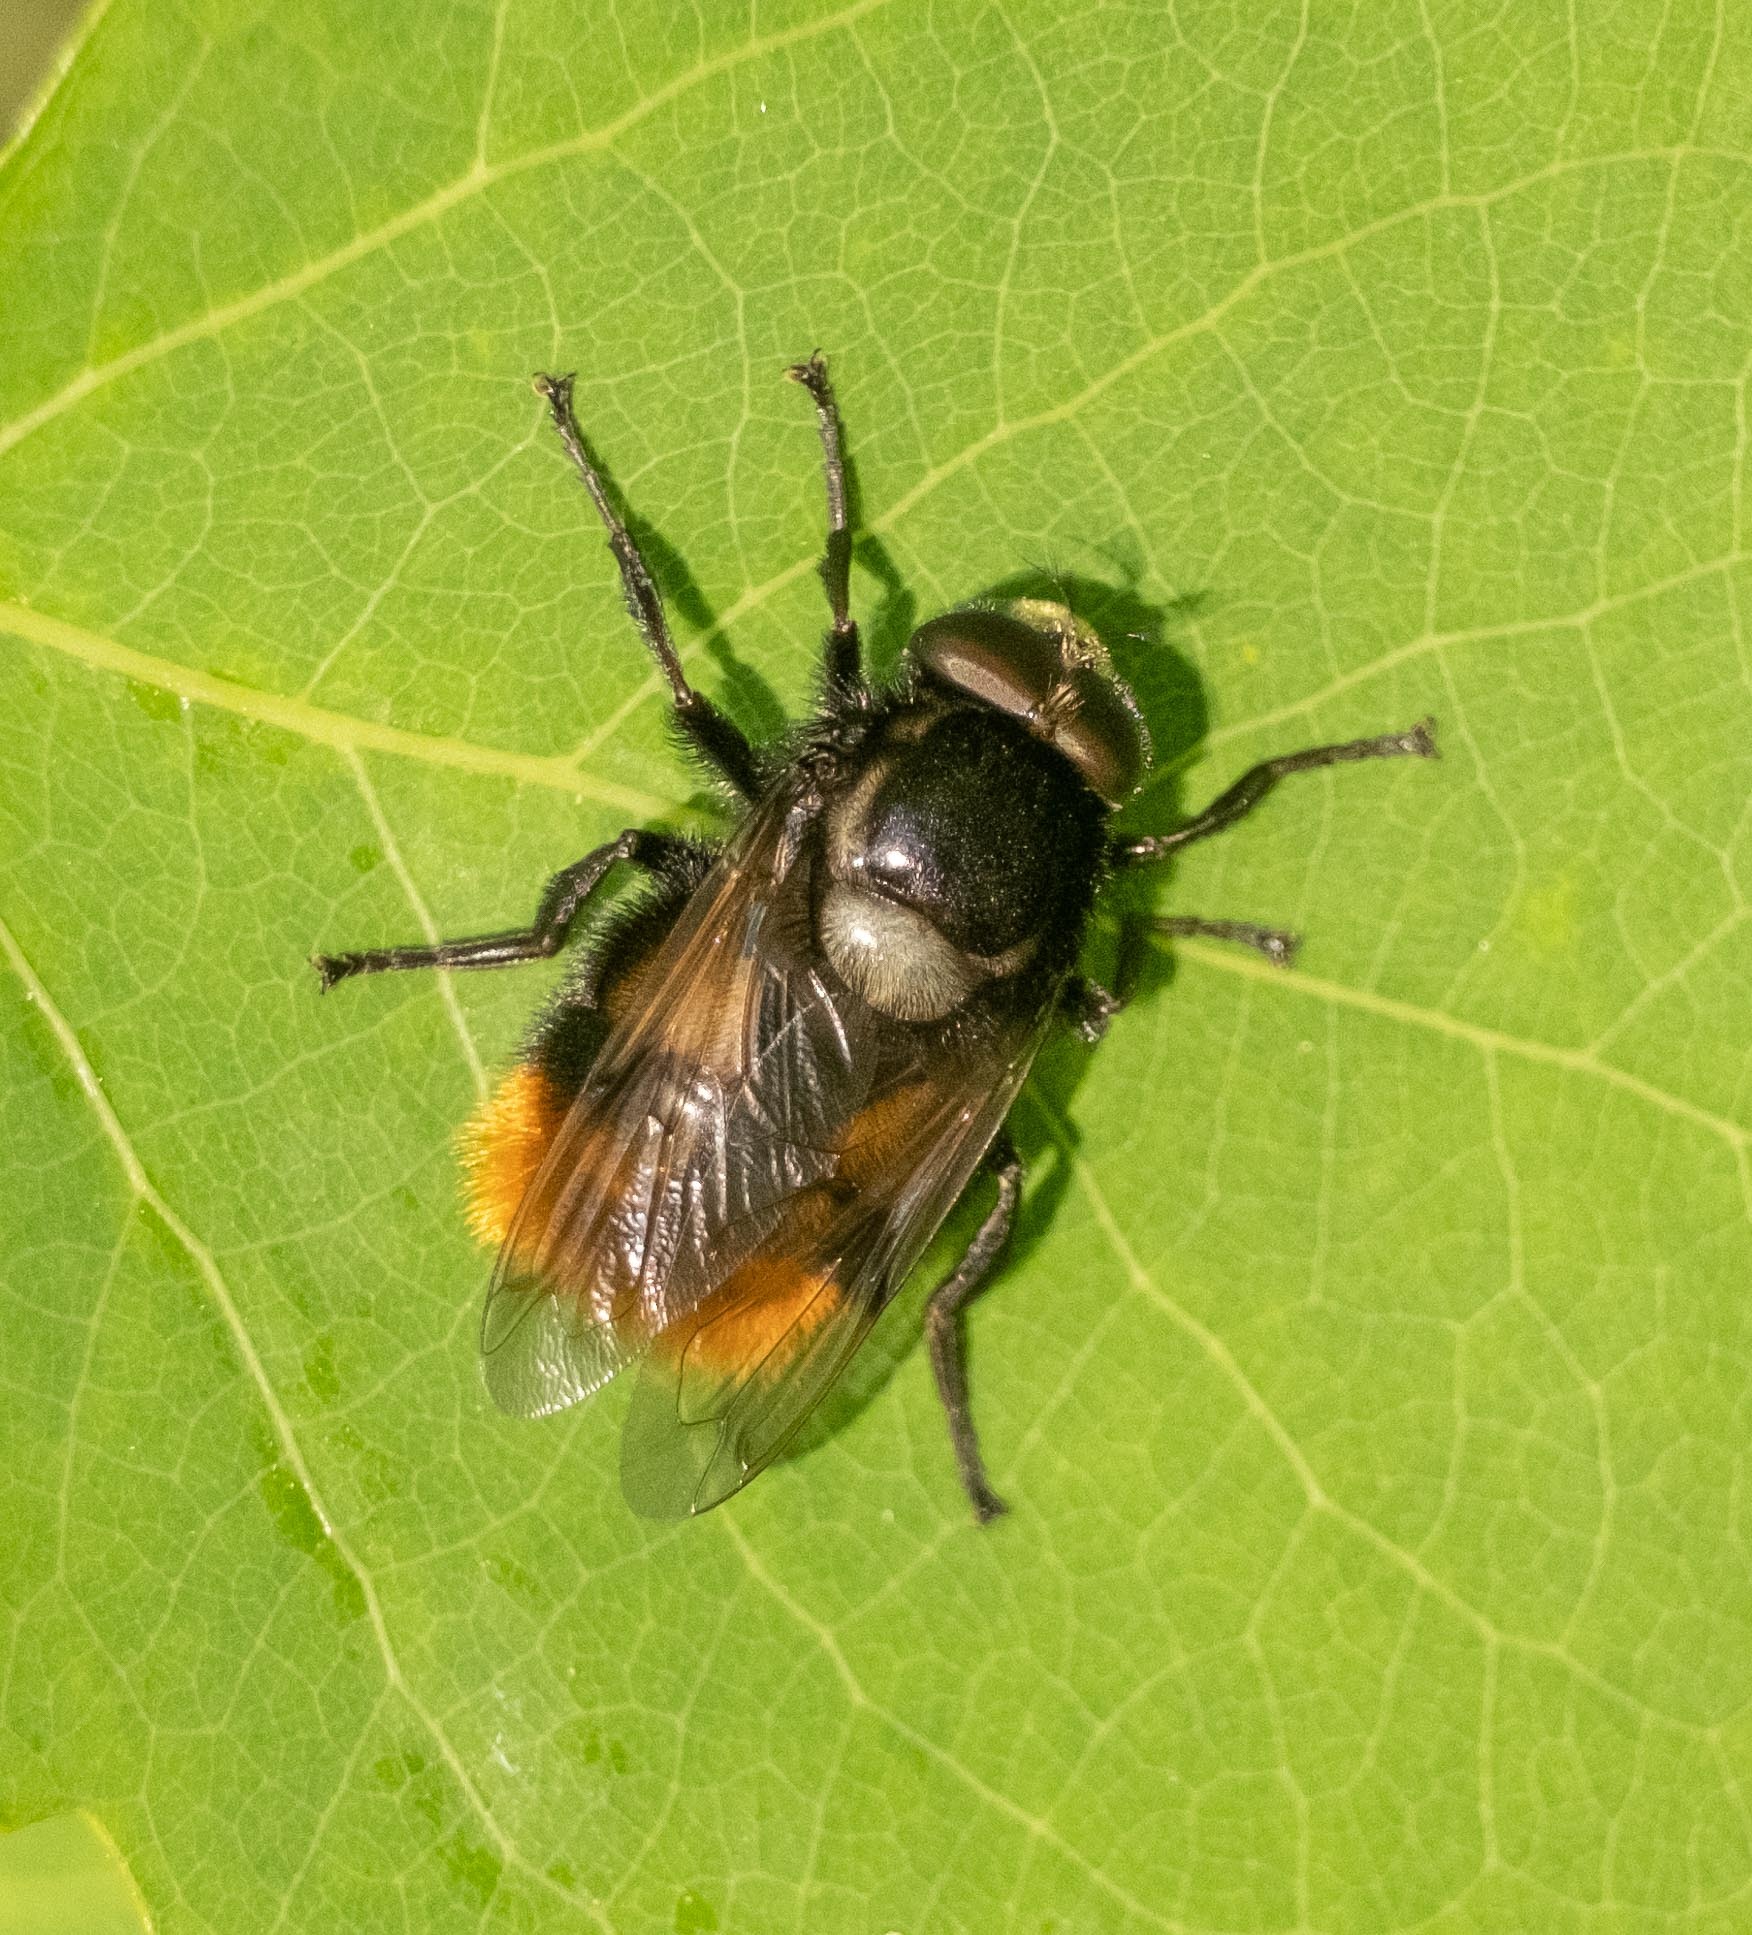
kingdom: Animalia
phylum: Arthropoda
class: Insecta
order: Diptera
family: Syrphidae
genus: Volucella
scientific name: Volucella bombylans
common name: Bumble bee hover fly
